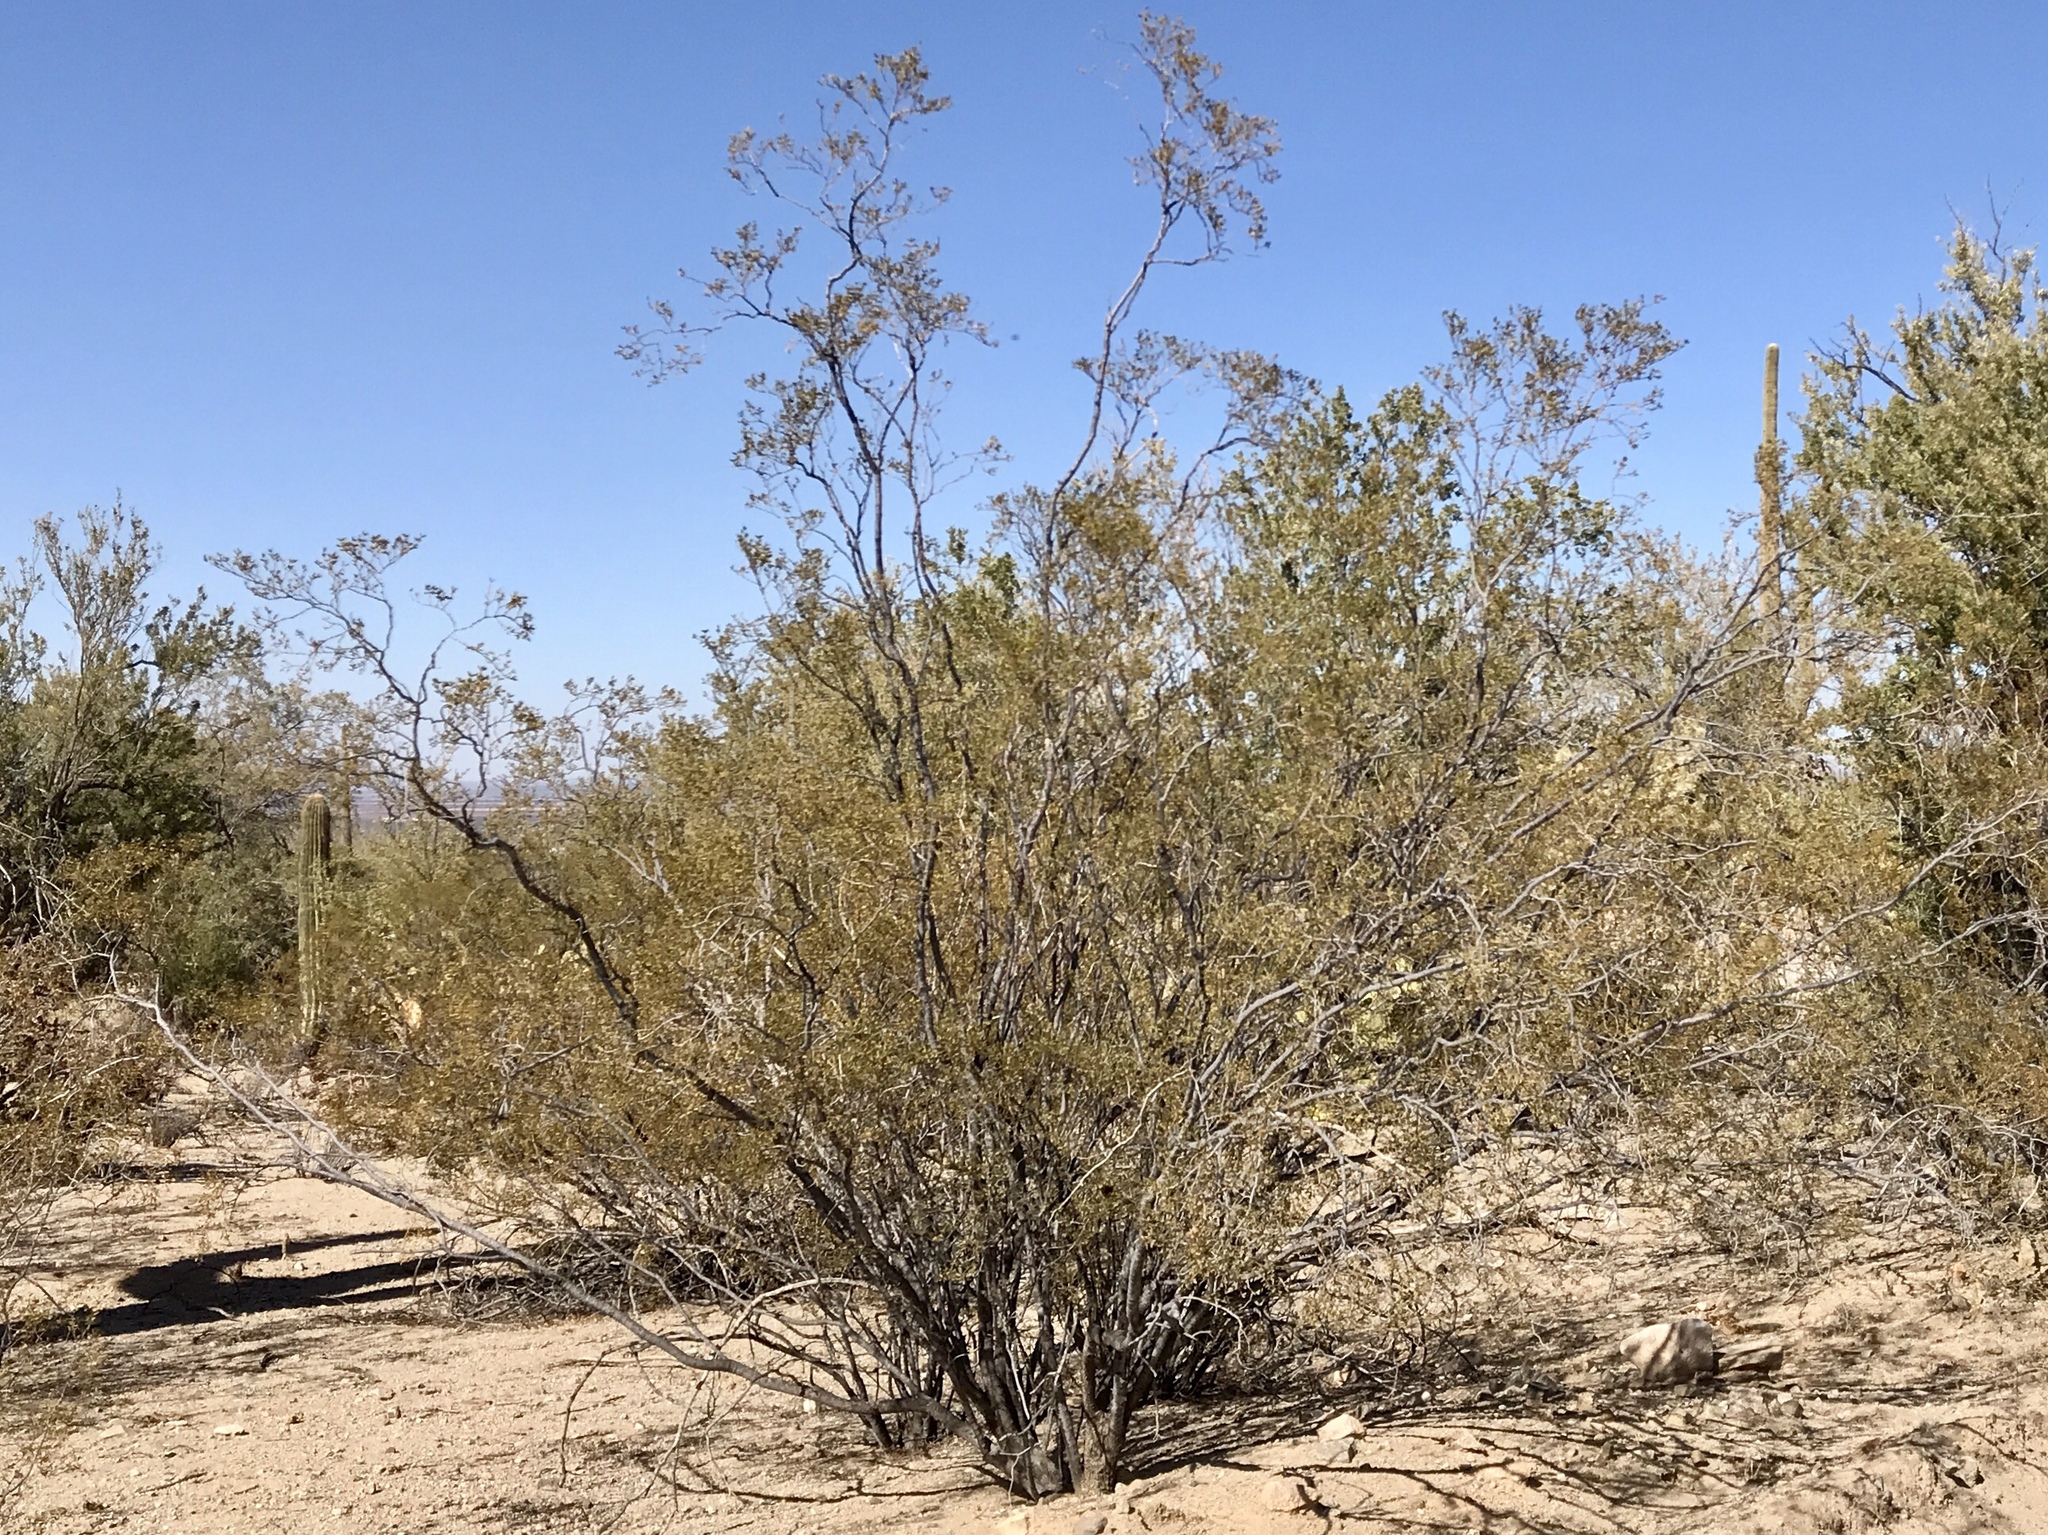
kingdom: Plantae
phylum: Tracheophyta
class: Magnoliopsida
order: Zygophyllales
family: Zygophyllaceae
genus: Larrea
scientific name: Larrea tridentata
